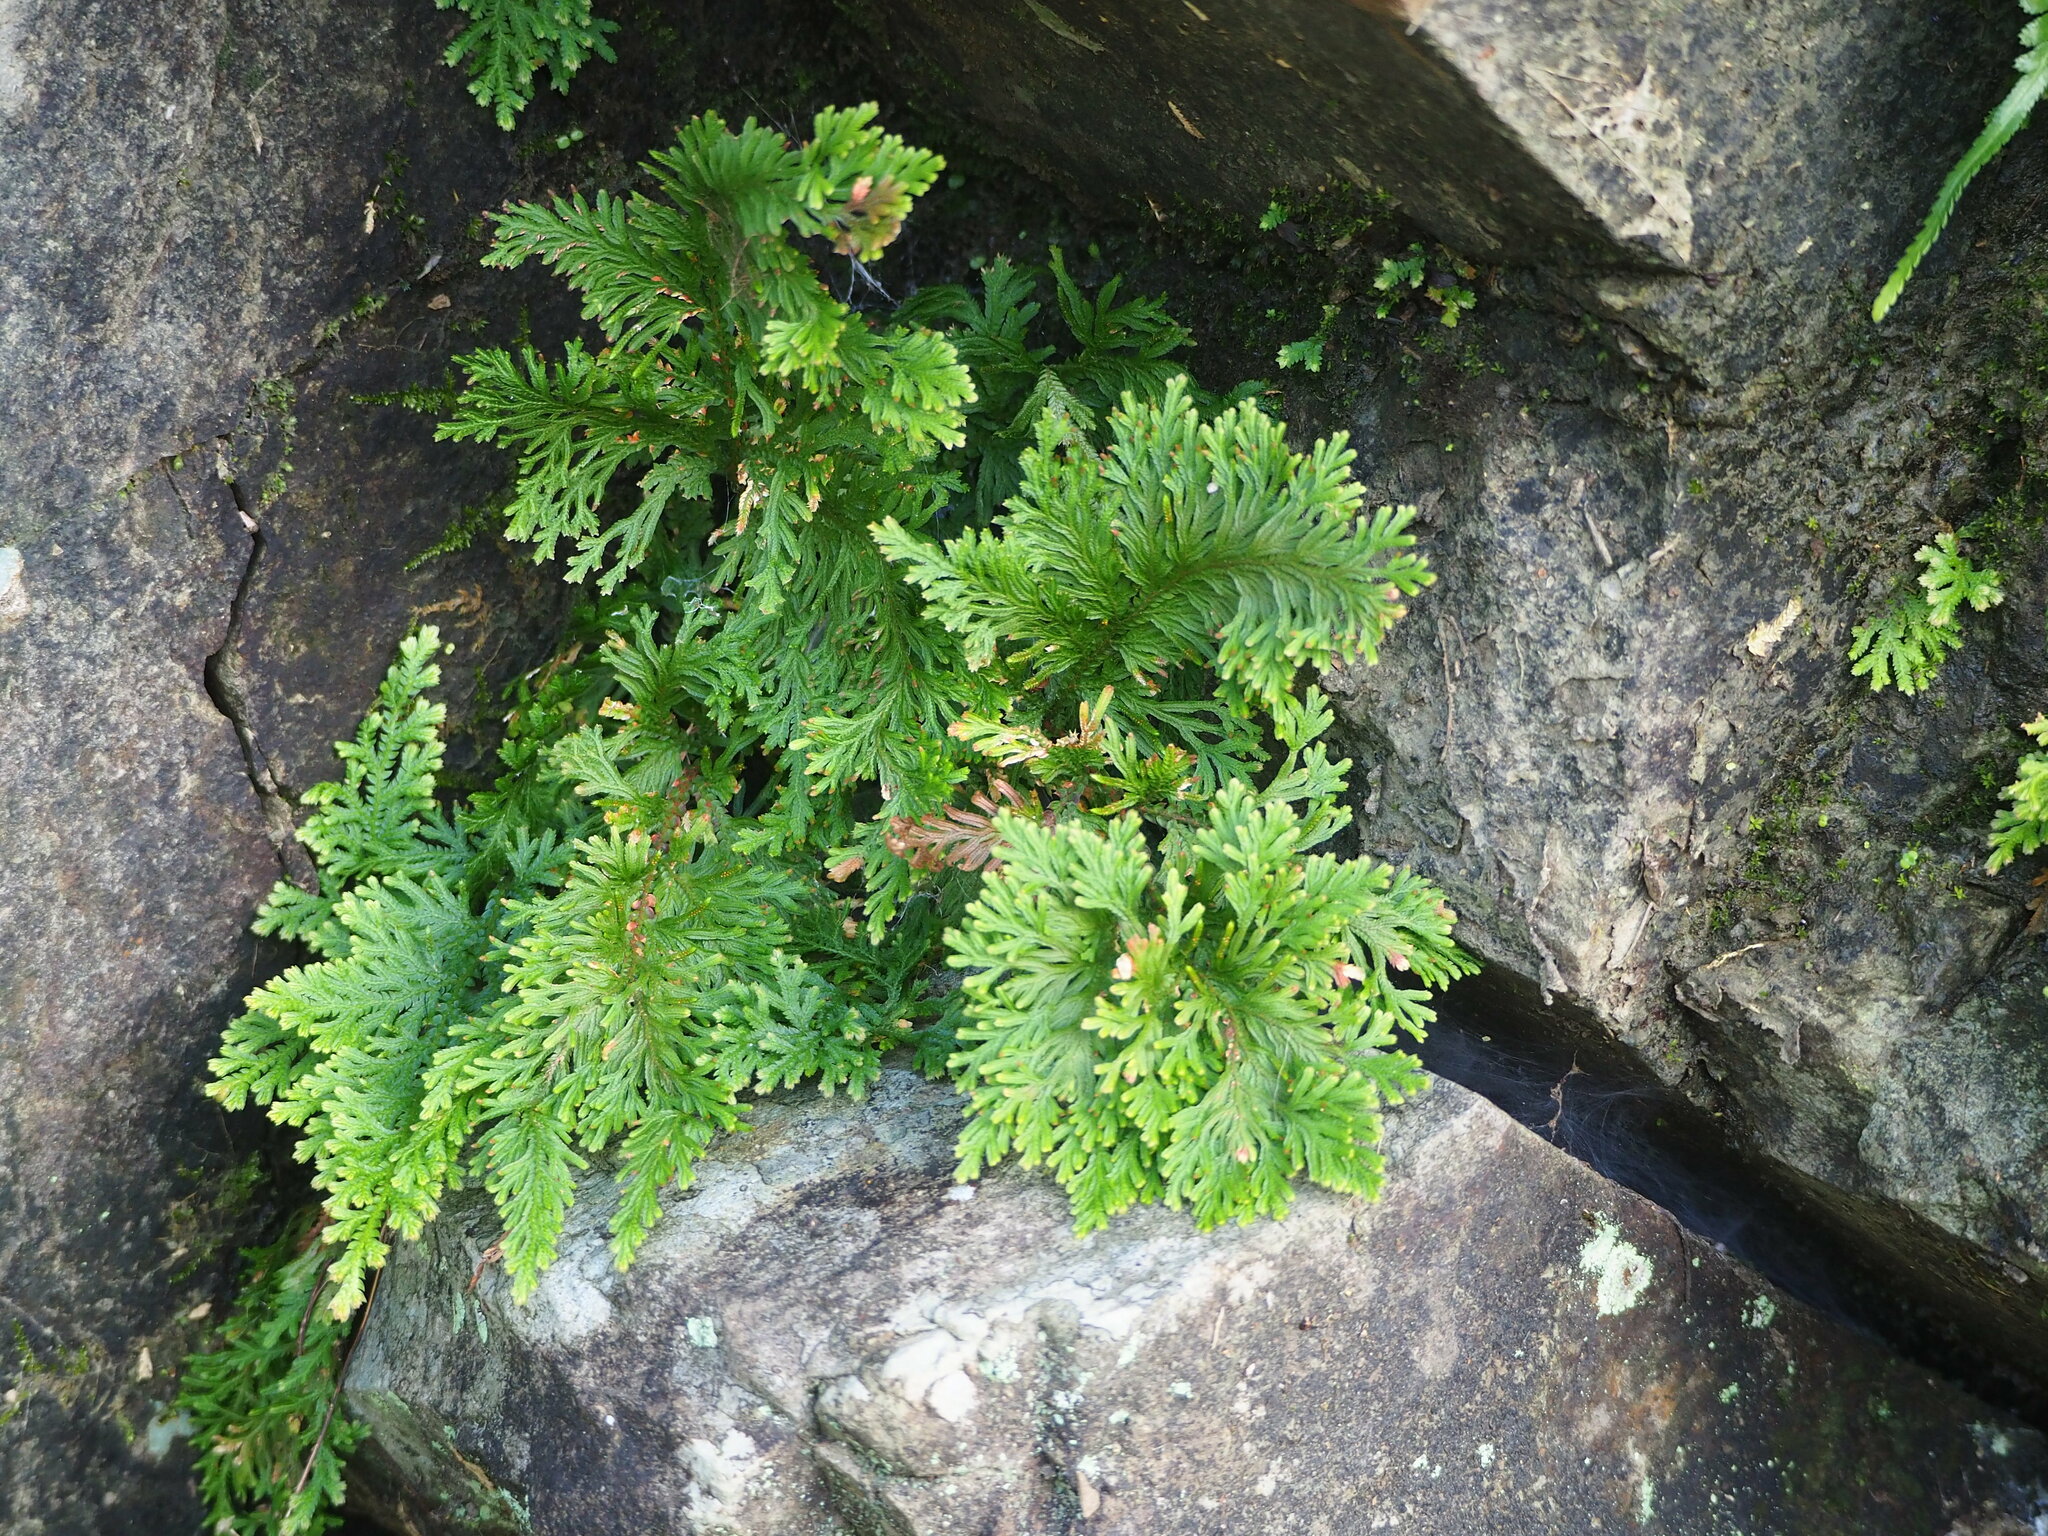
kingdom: Plantae
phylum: Tracheophyta
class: Lycopodiopsida
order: Selaginellales
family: Selaginellaceae
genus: Selaginella
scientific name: Selaginella moellendorffii
